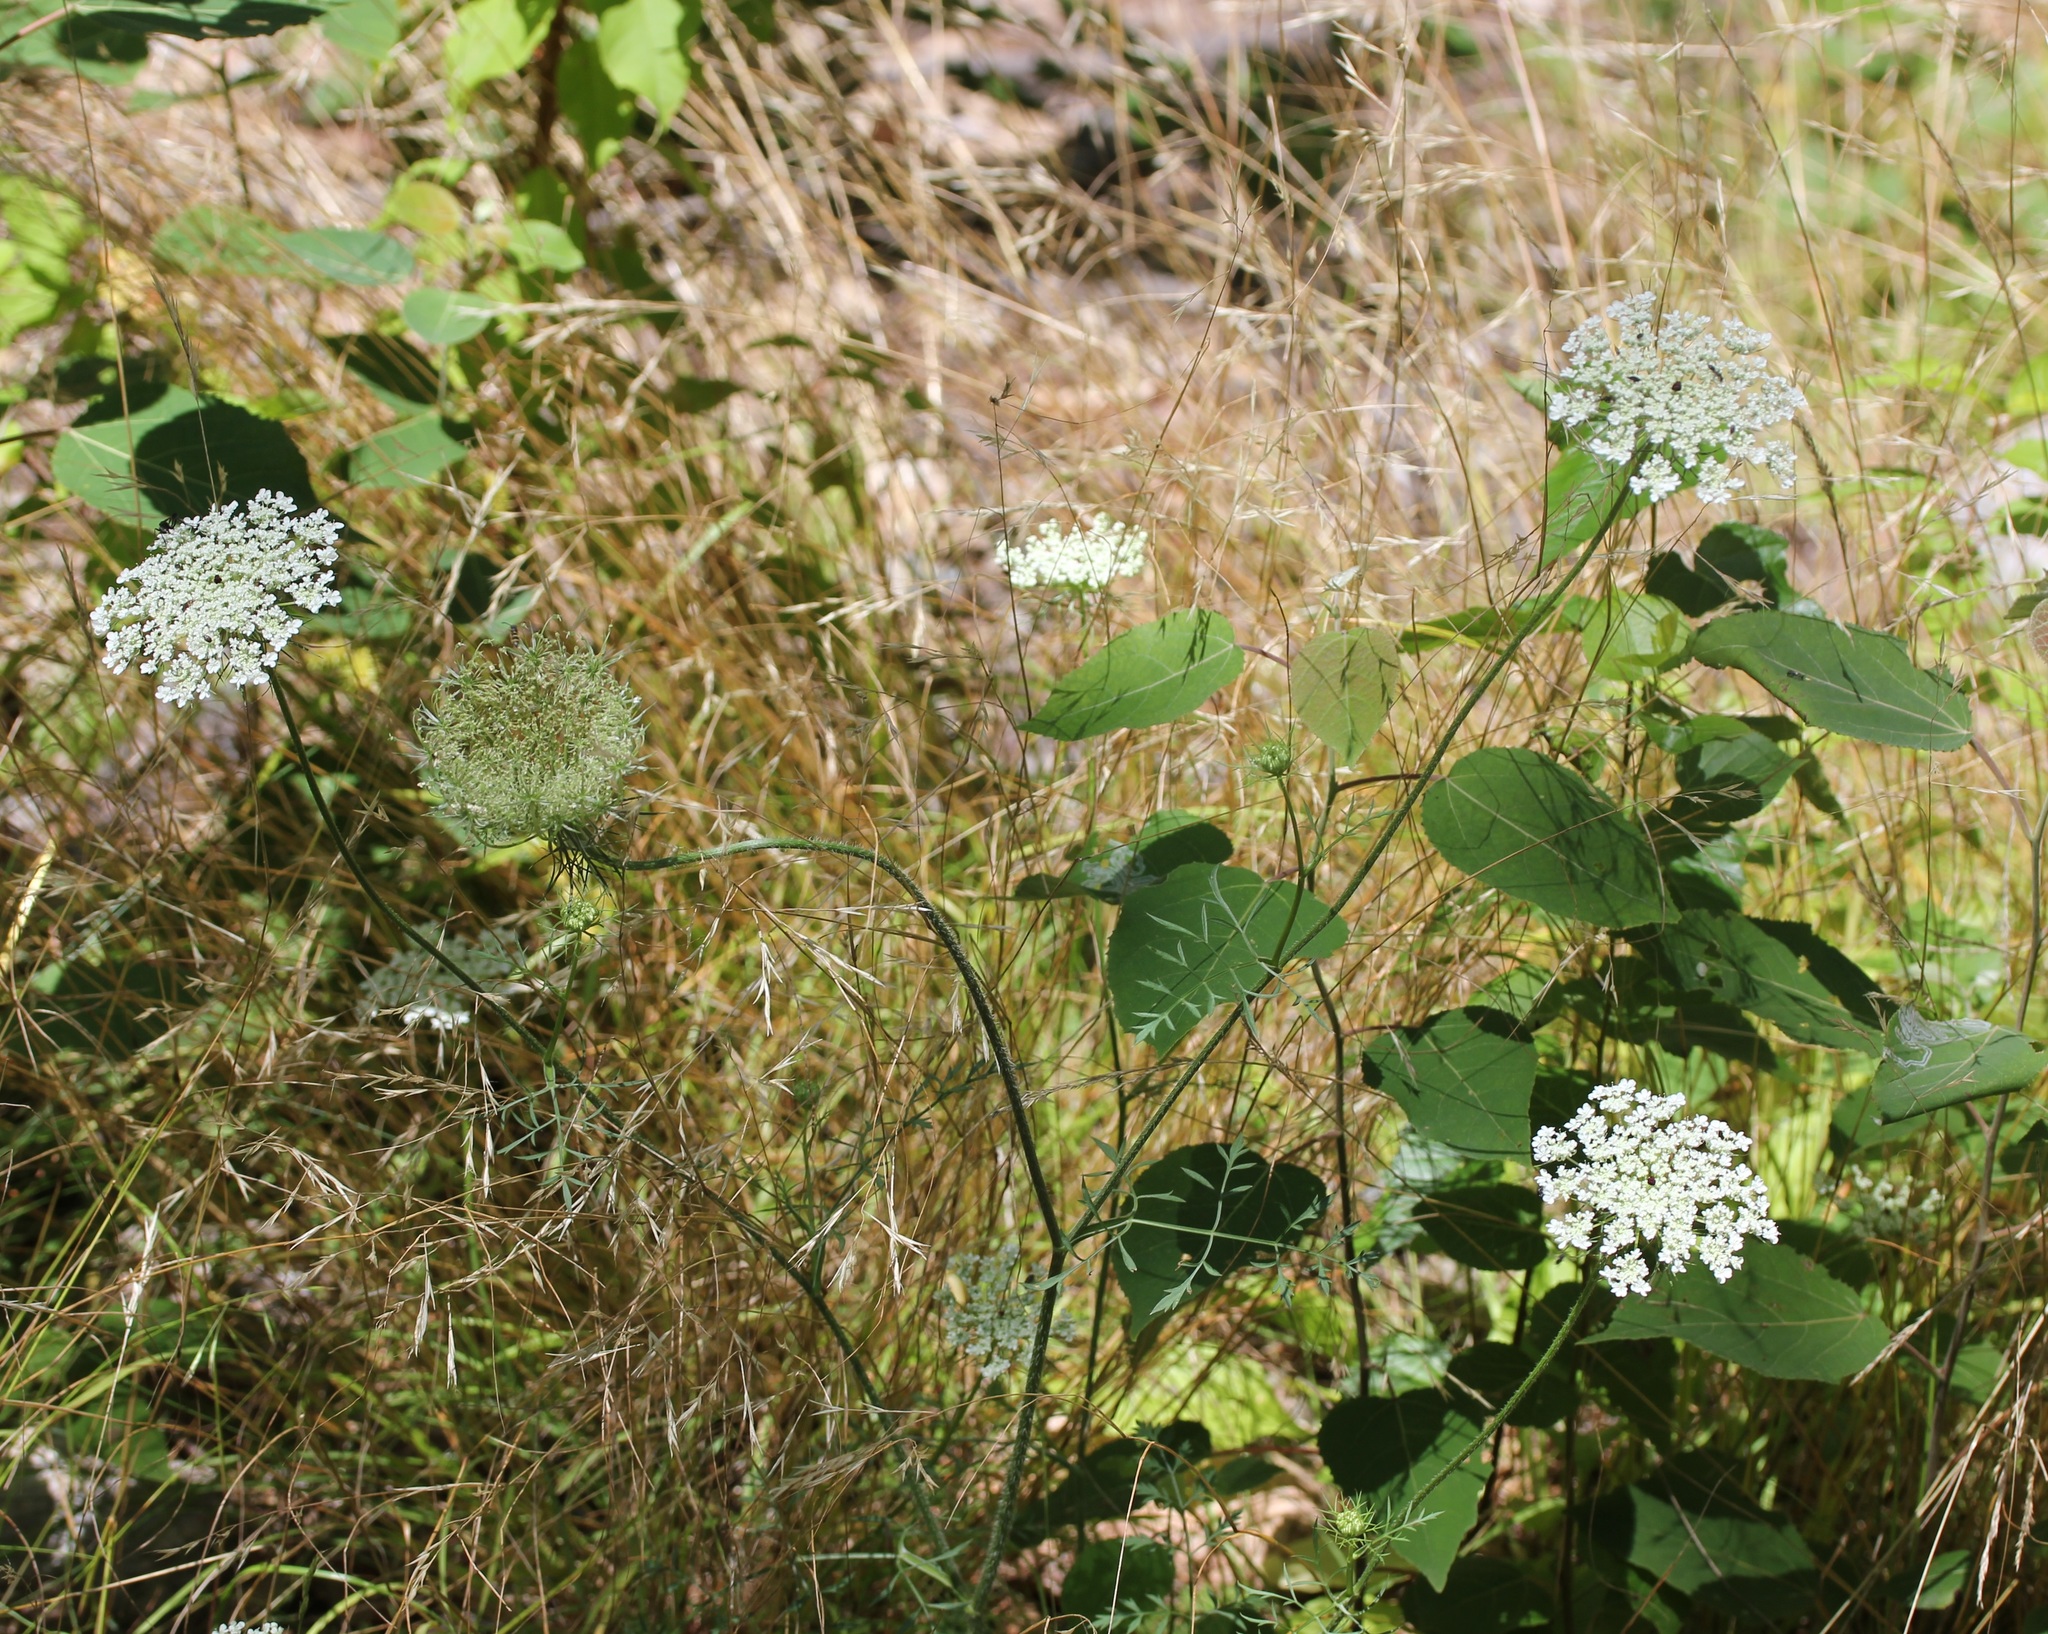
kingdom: Plantae
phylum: Tracheophyta
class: Magnoliopsida
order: Apiales
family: Apiaceae
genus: Daucus
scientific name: Daucus carota
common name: Wild carrot
